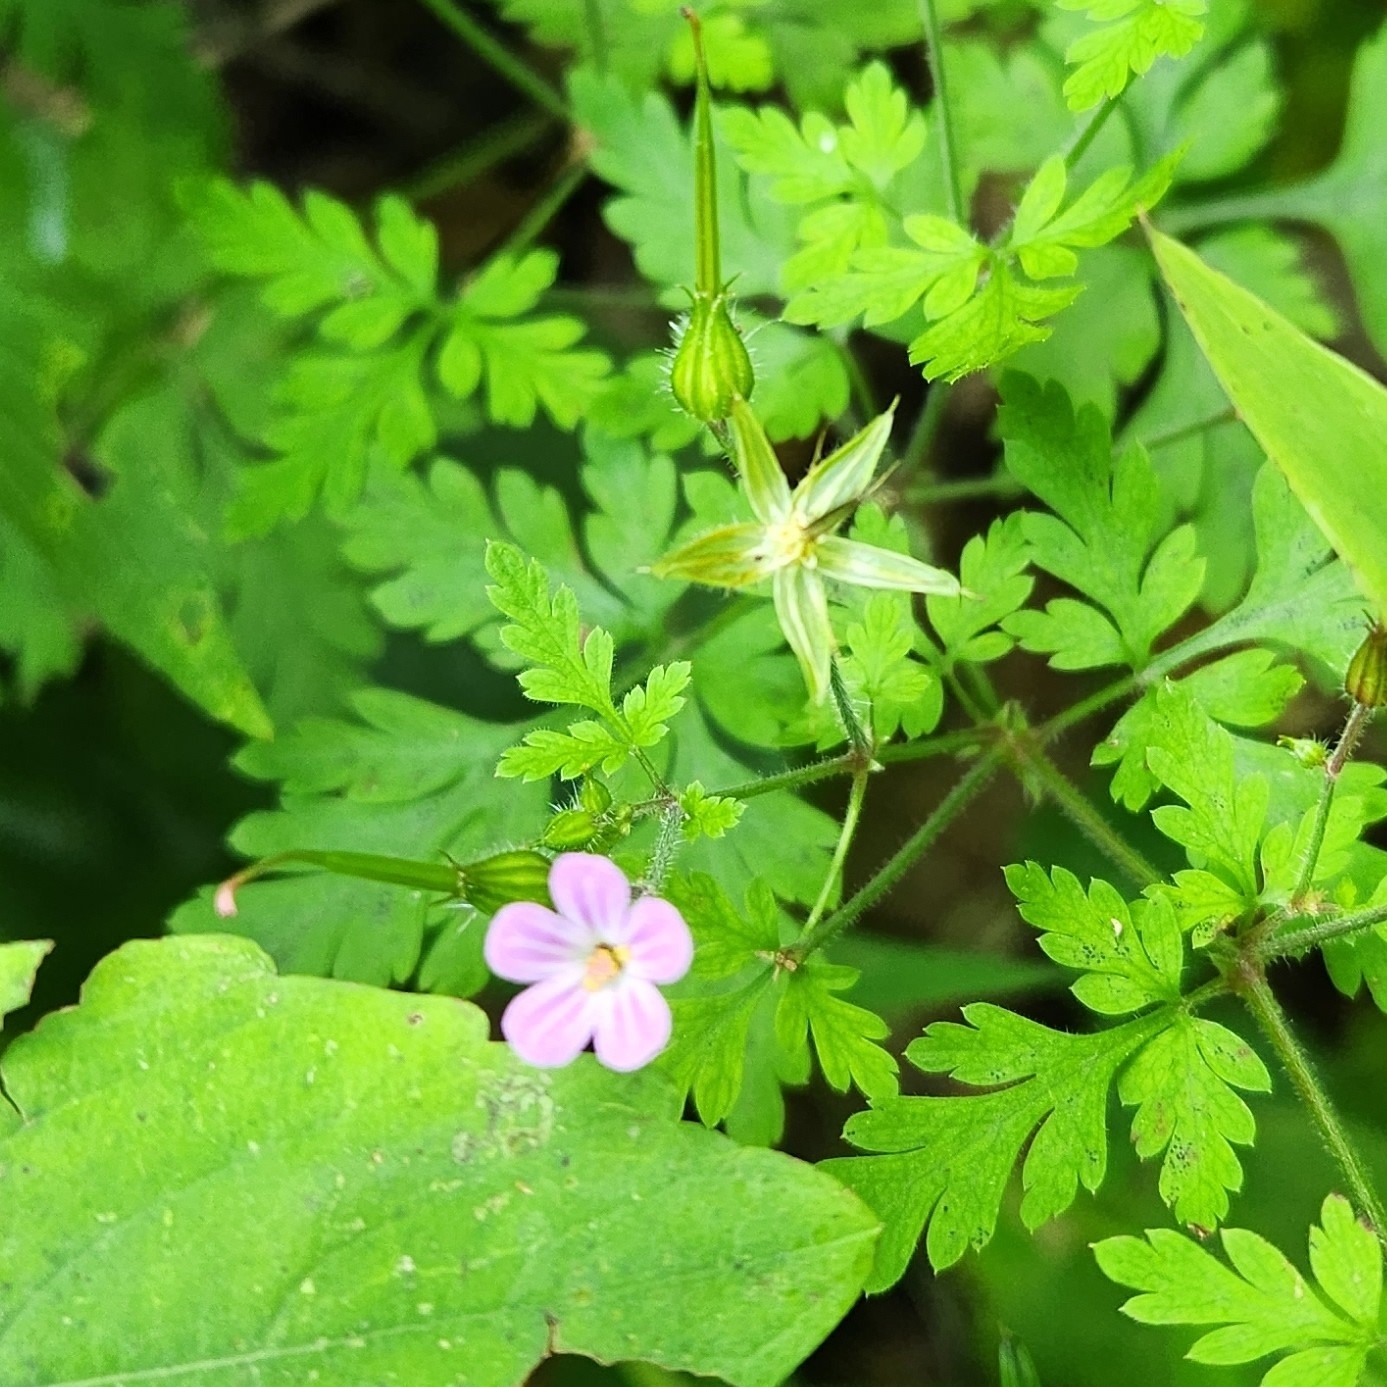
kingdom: Plantae
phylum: Tracheophyta
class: Magnoliopsida
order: Geraniales
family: Geraniaceae
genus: Geranium
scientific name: Geranium robertianum
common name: Herb-robert
